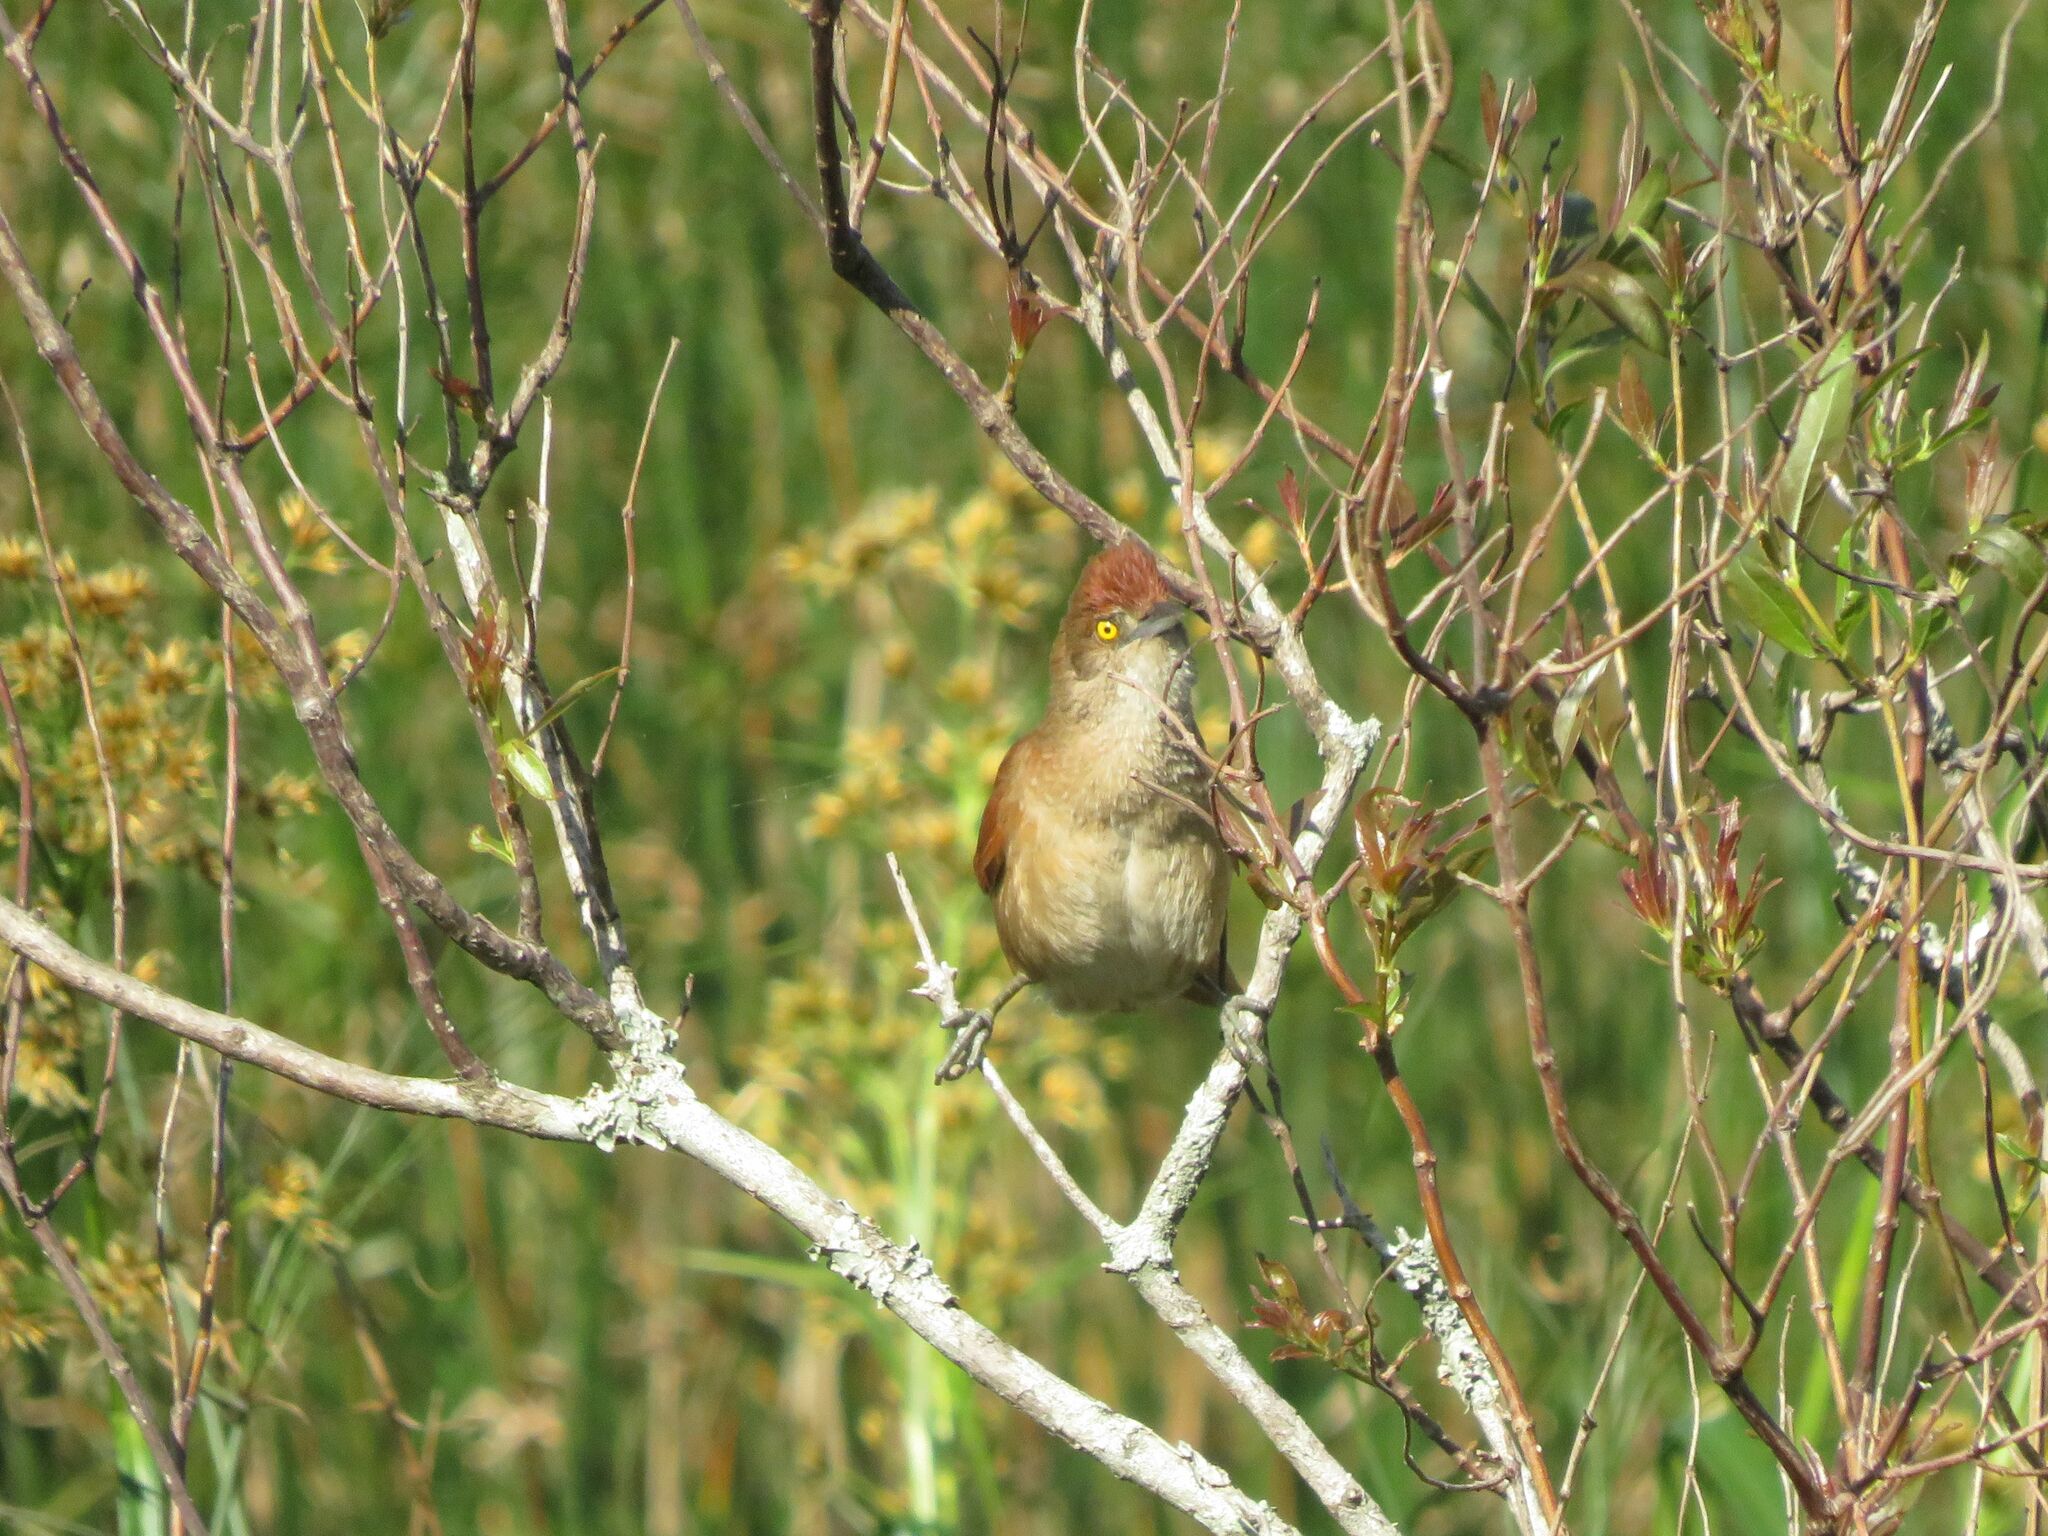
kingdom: Animalia
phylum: Chordata
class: Aves
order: Passeriformes
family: Furnariidae
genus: Phacellodomus
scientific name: Phacellodomus ruber
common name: Greater thornbird
